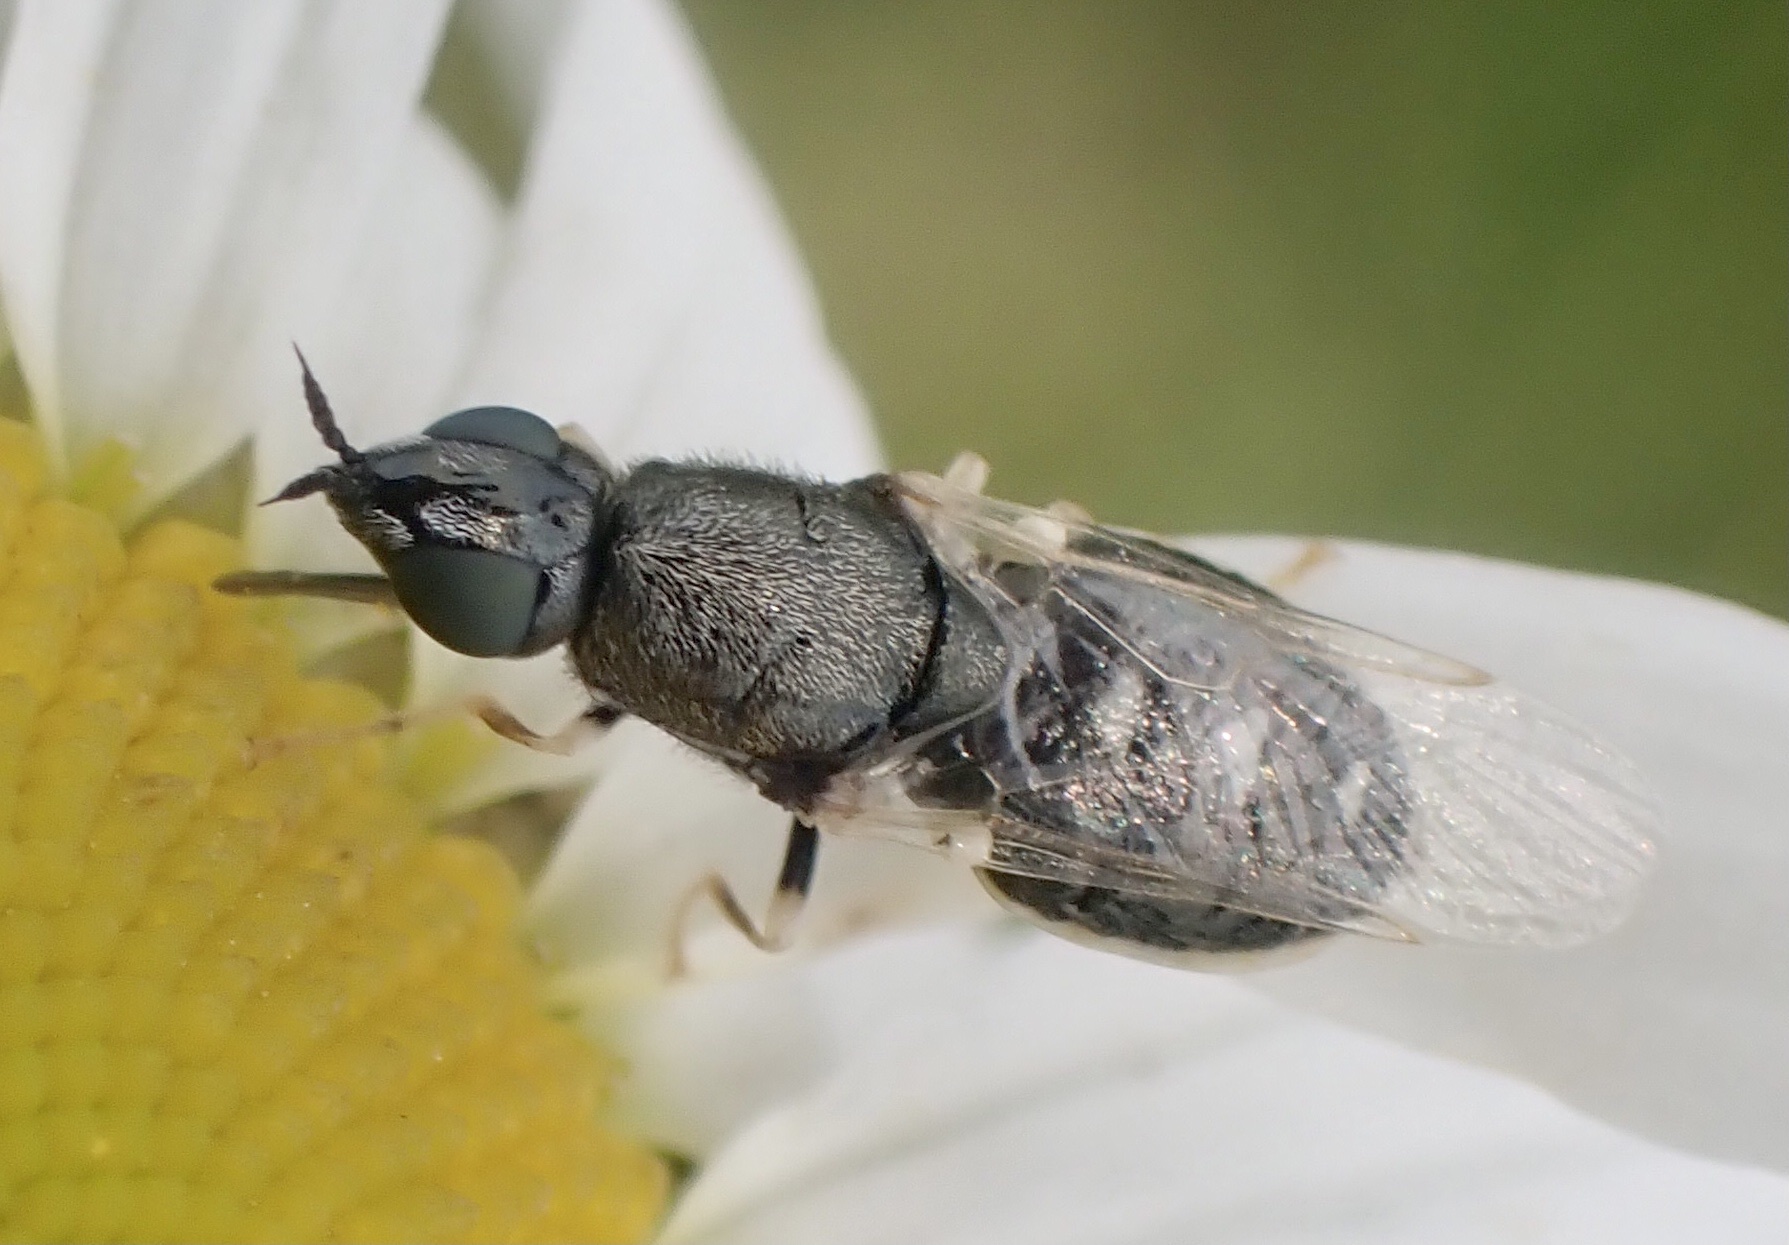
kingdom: Animalia
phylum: Arthropoda
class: Insecta
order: Diptera
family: Stratiomyidae
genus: Nemotelus
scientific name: Nemotelus pantherina
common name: Fen snout
